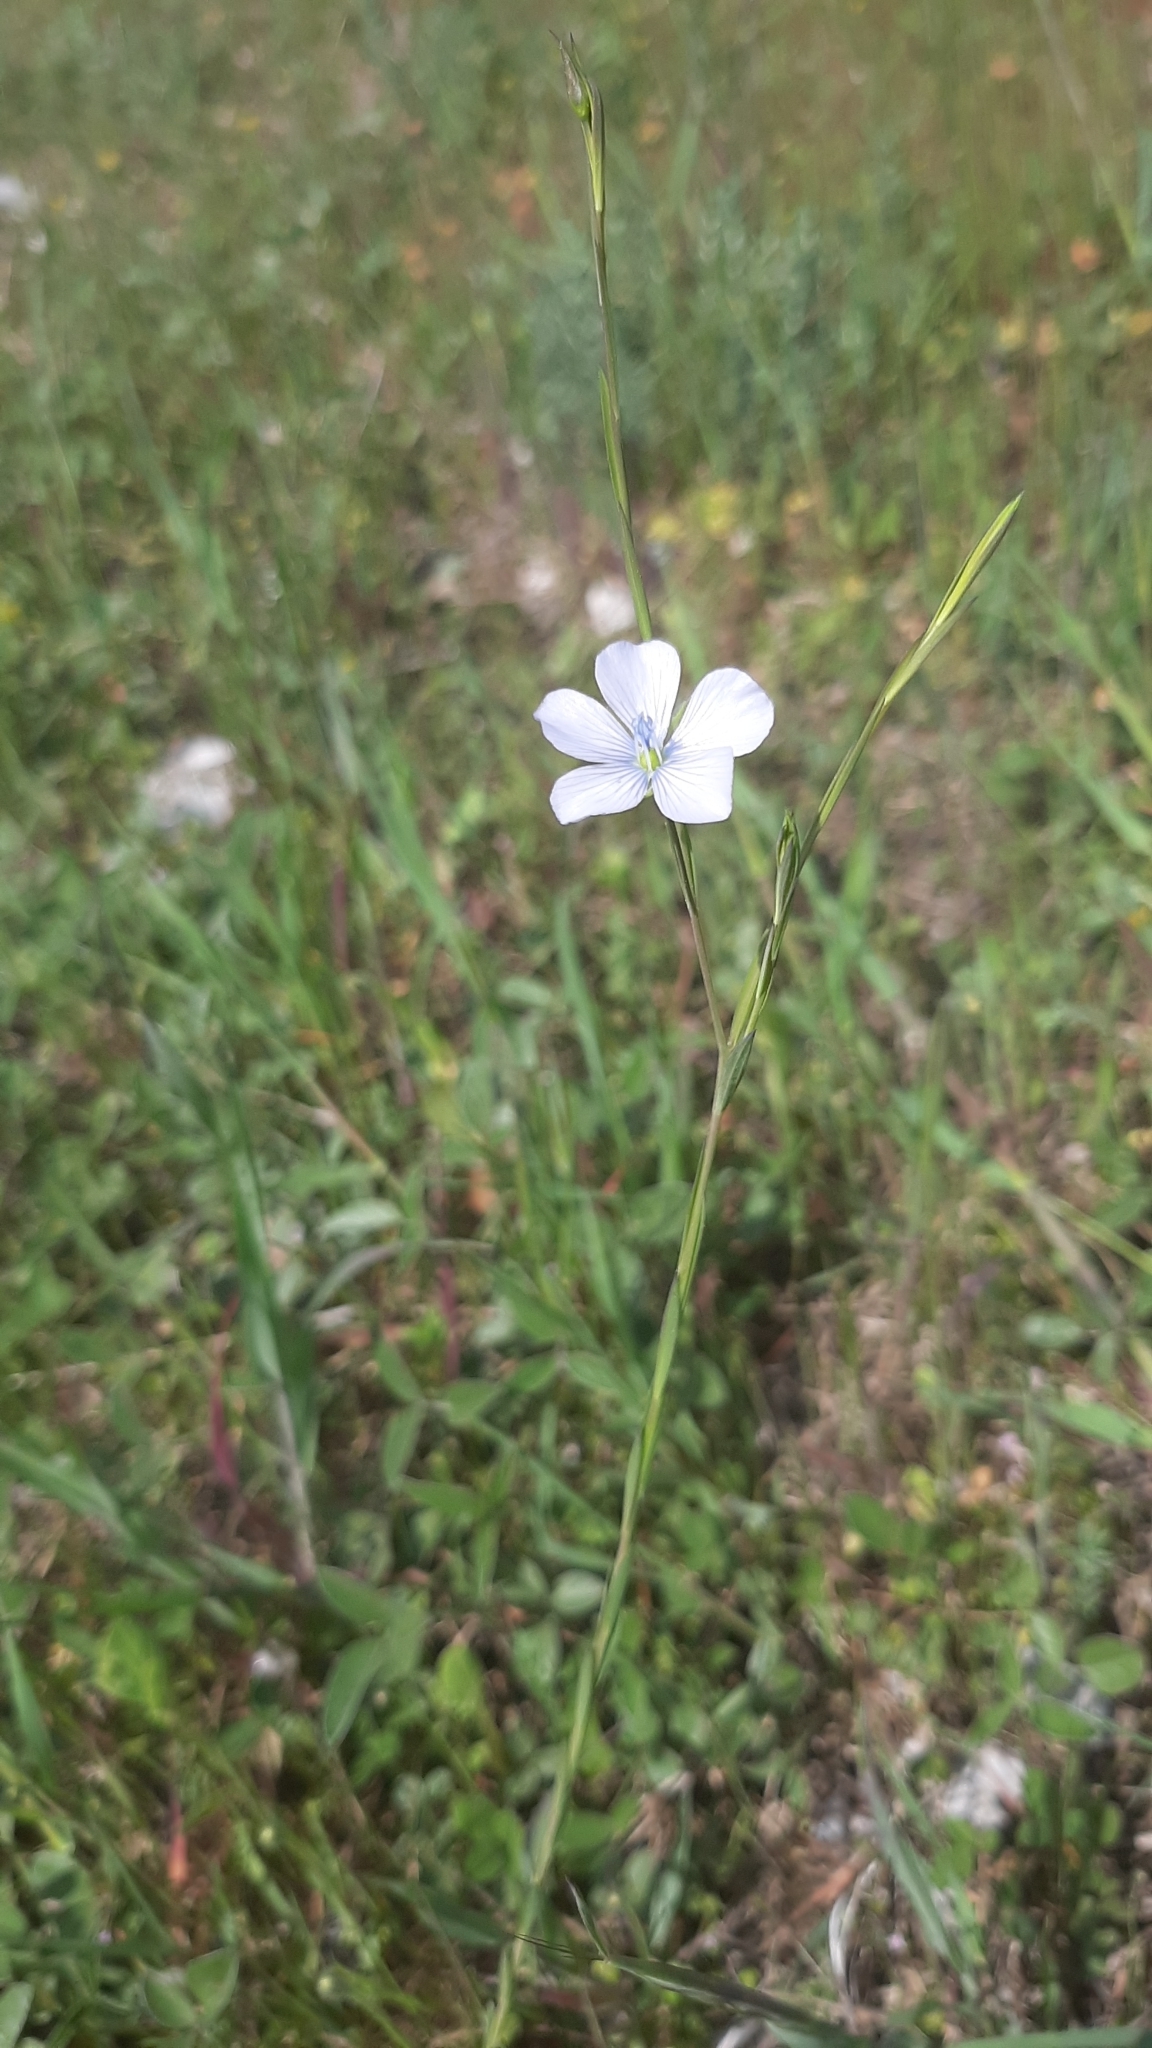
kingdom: Plantae
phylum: Tracheophyta
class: Magnoliopsida
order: Malpighiales
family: Linaceae
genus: Linum
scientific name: Linum bienne
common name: Pale flax
